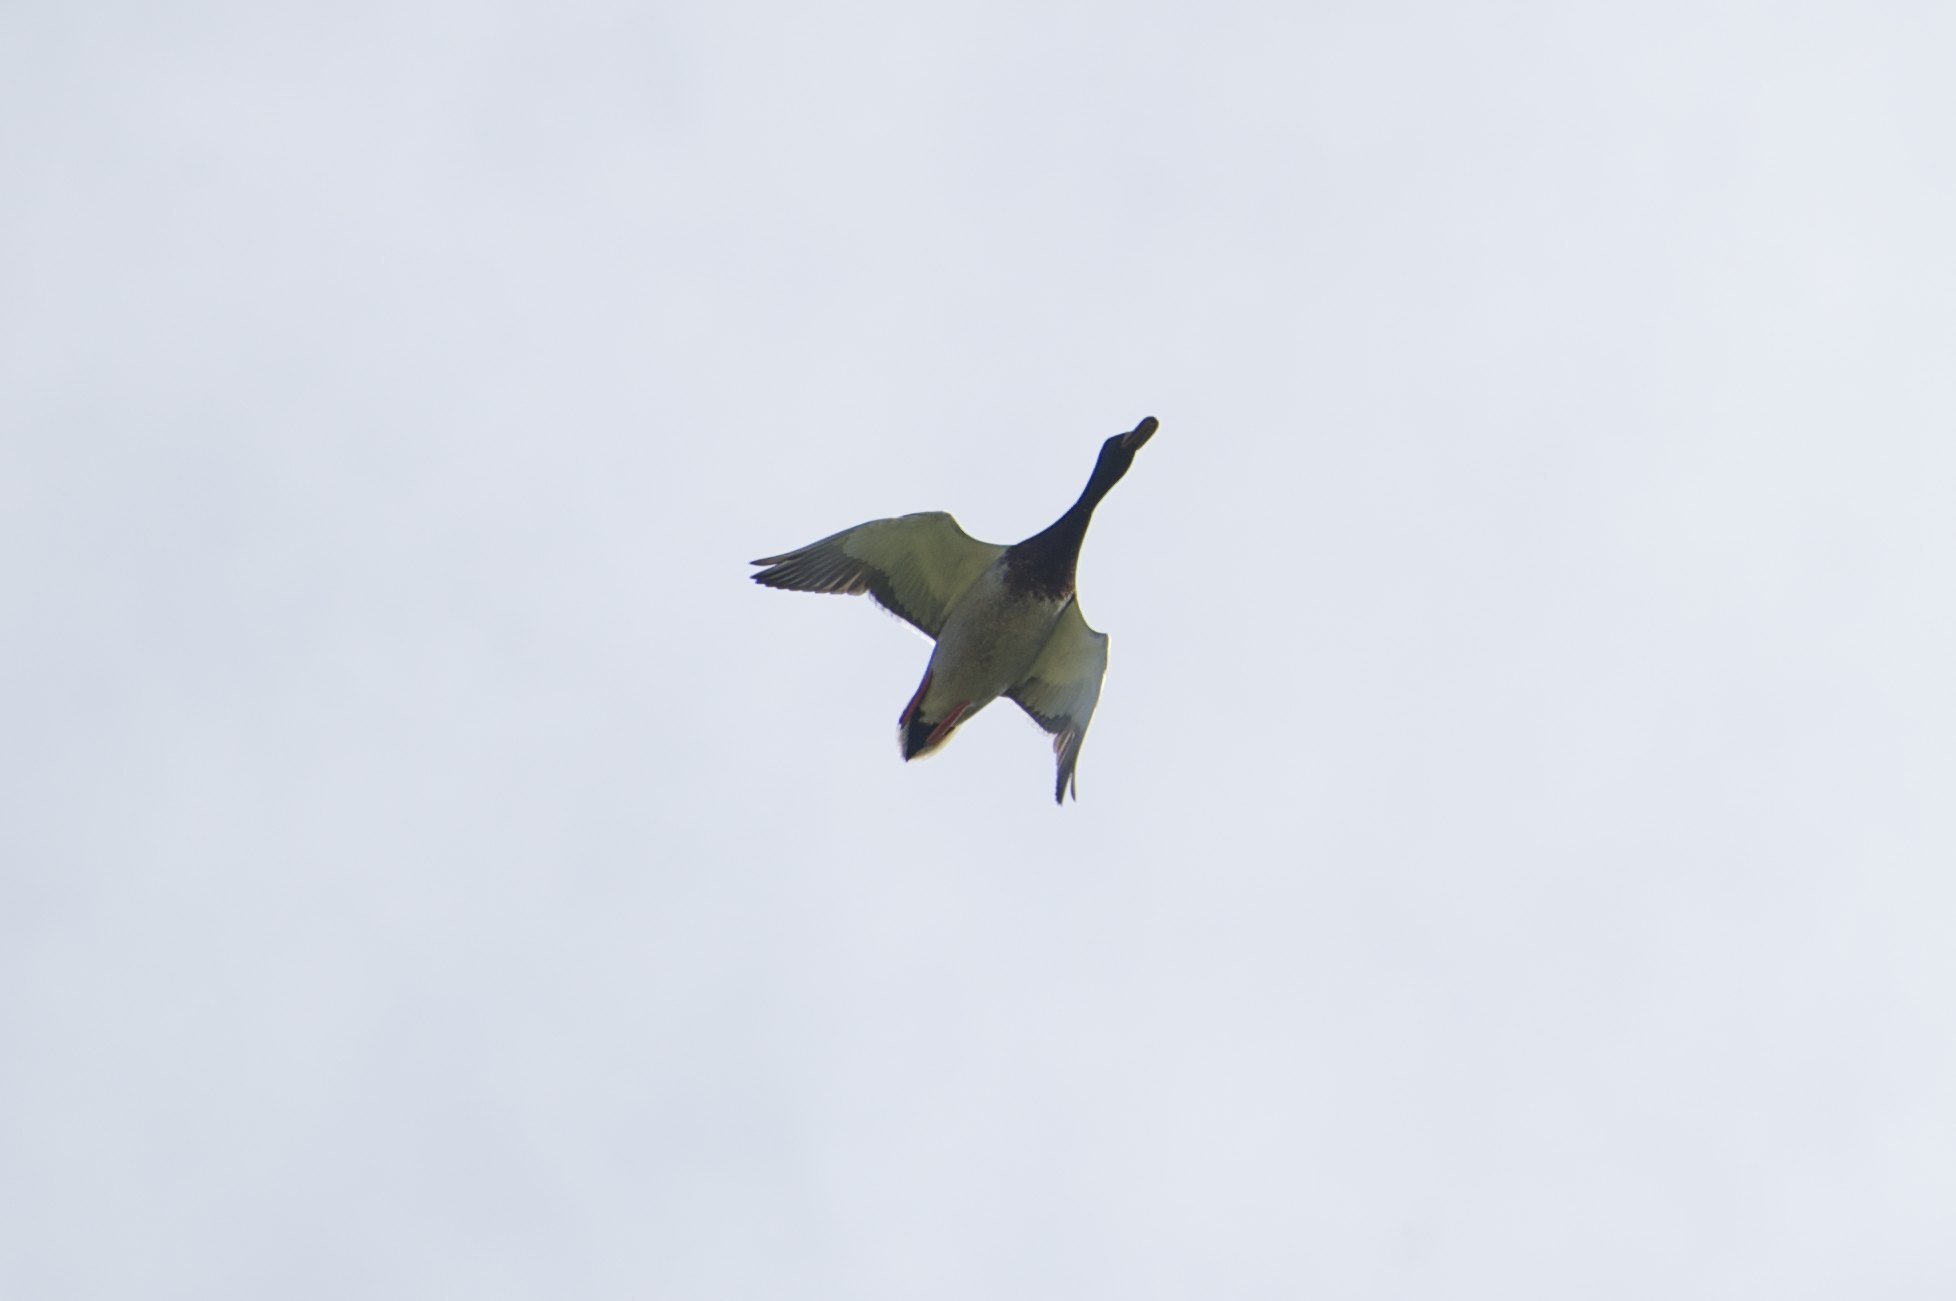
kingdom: Animalia
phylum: Chordata
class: Aves
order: Anseriformes
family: Anatidae
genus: Anas
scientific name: Anas platyrhynchos
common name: Mallard
